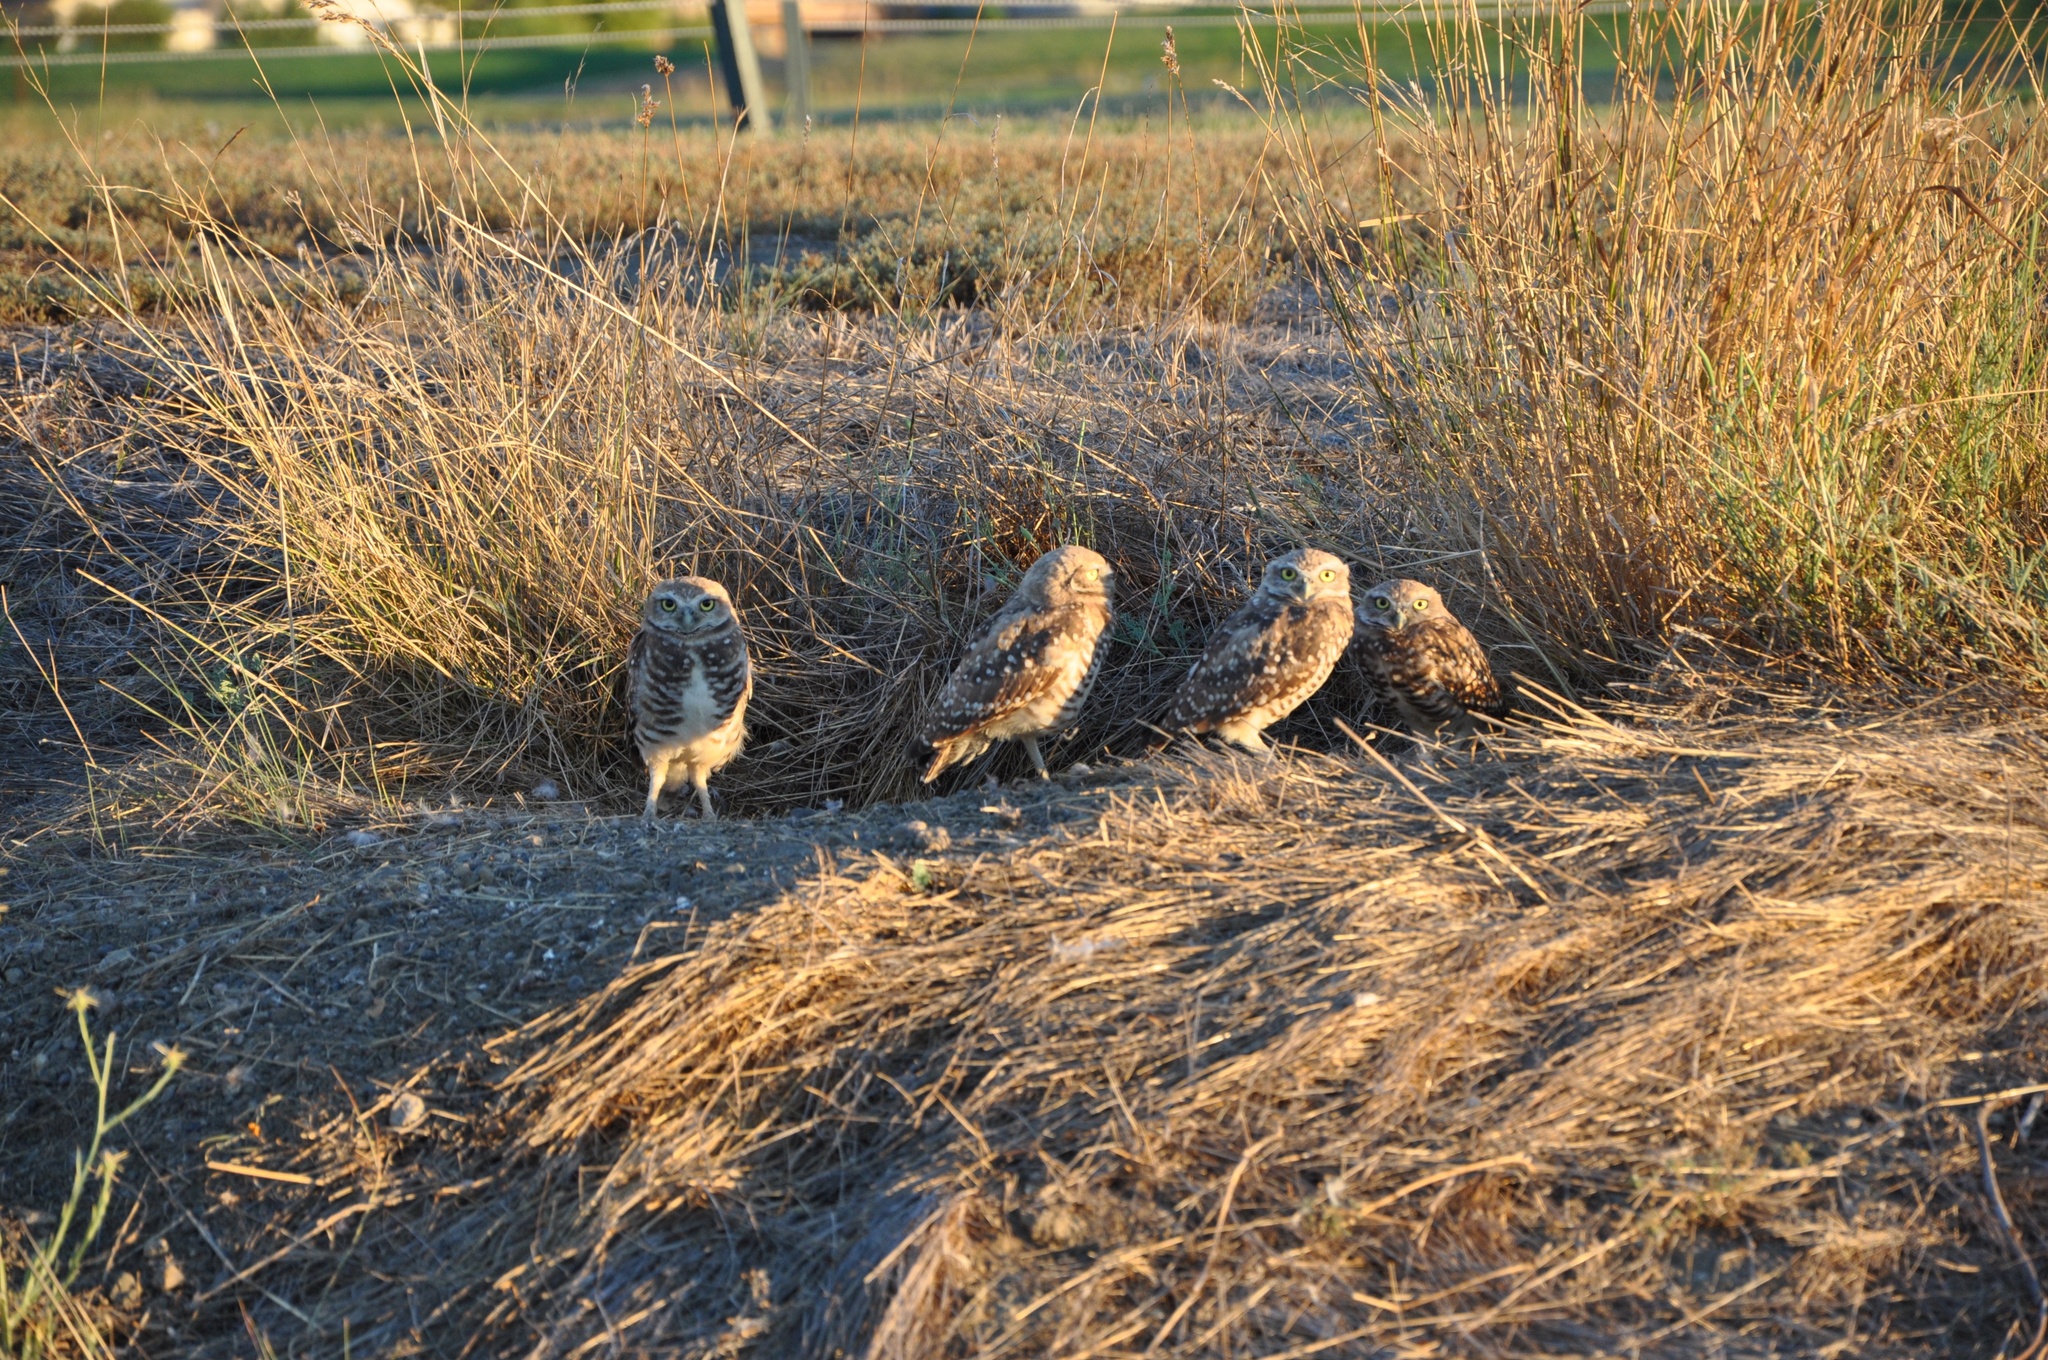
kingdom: Animalia
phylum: Chordata
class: Aves
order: Strigiformes
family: Strigidae
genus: Athene
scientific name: Athene cunicularia
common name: Burrowing owl
